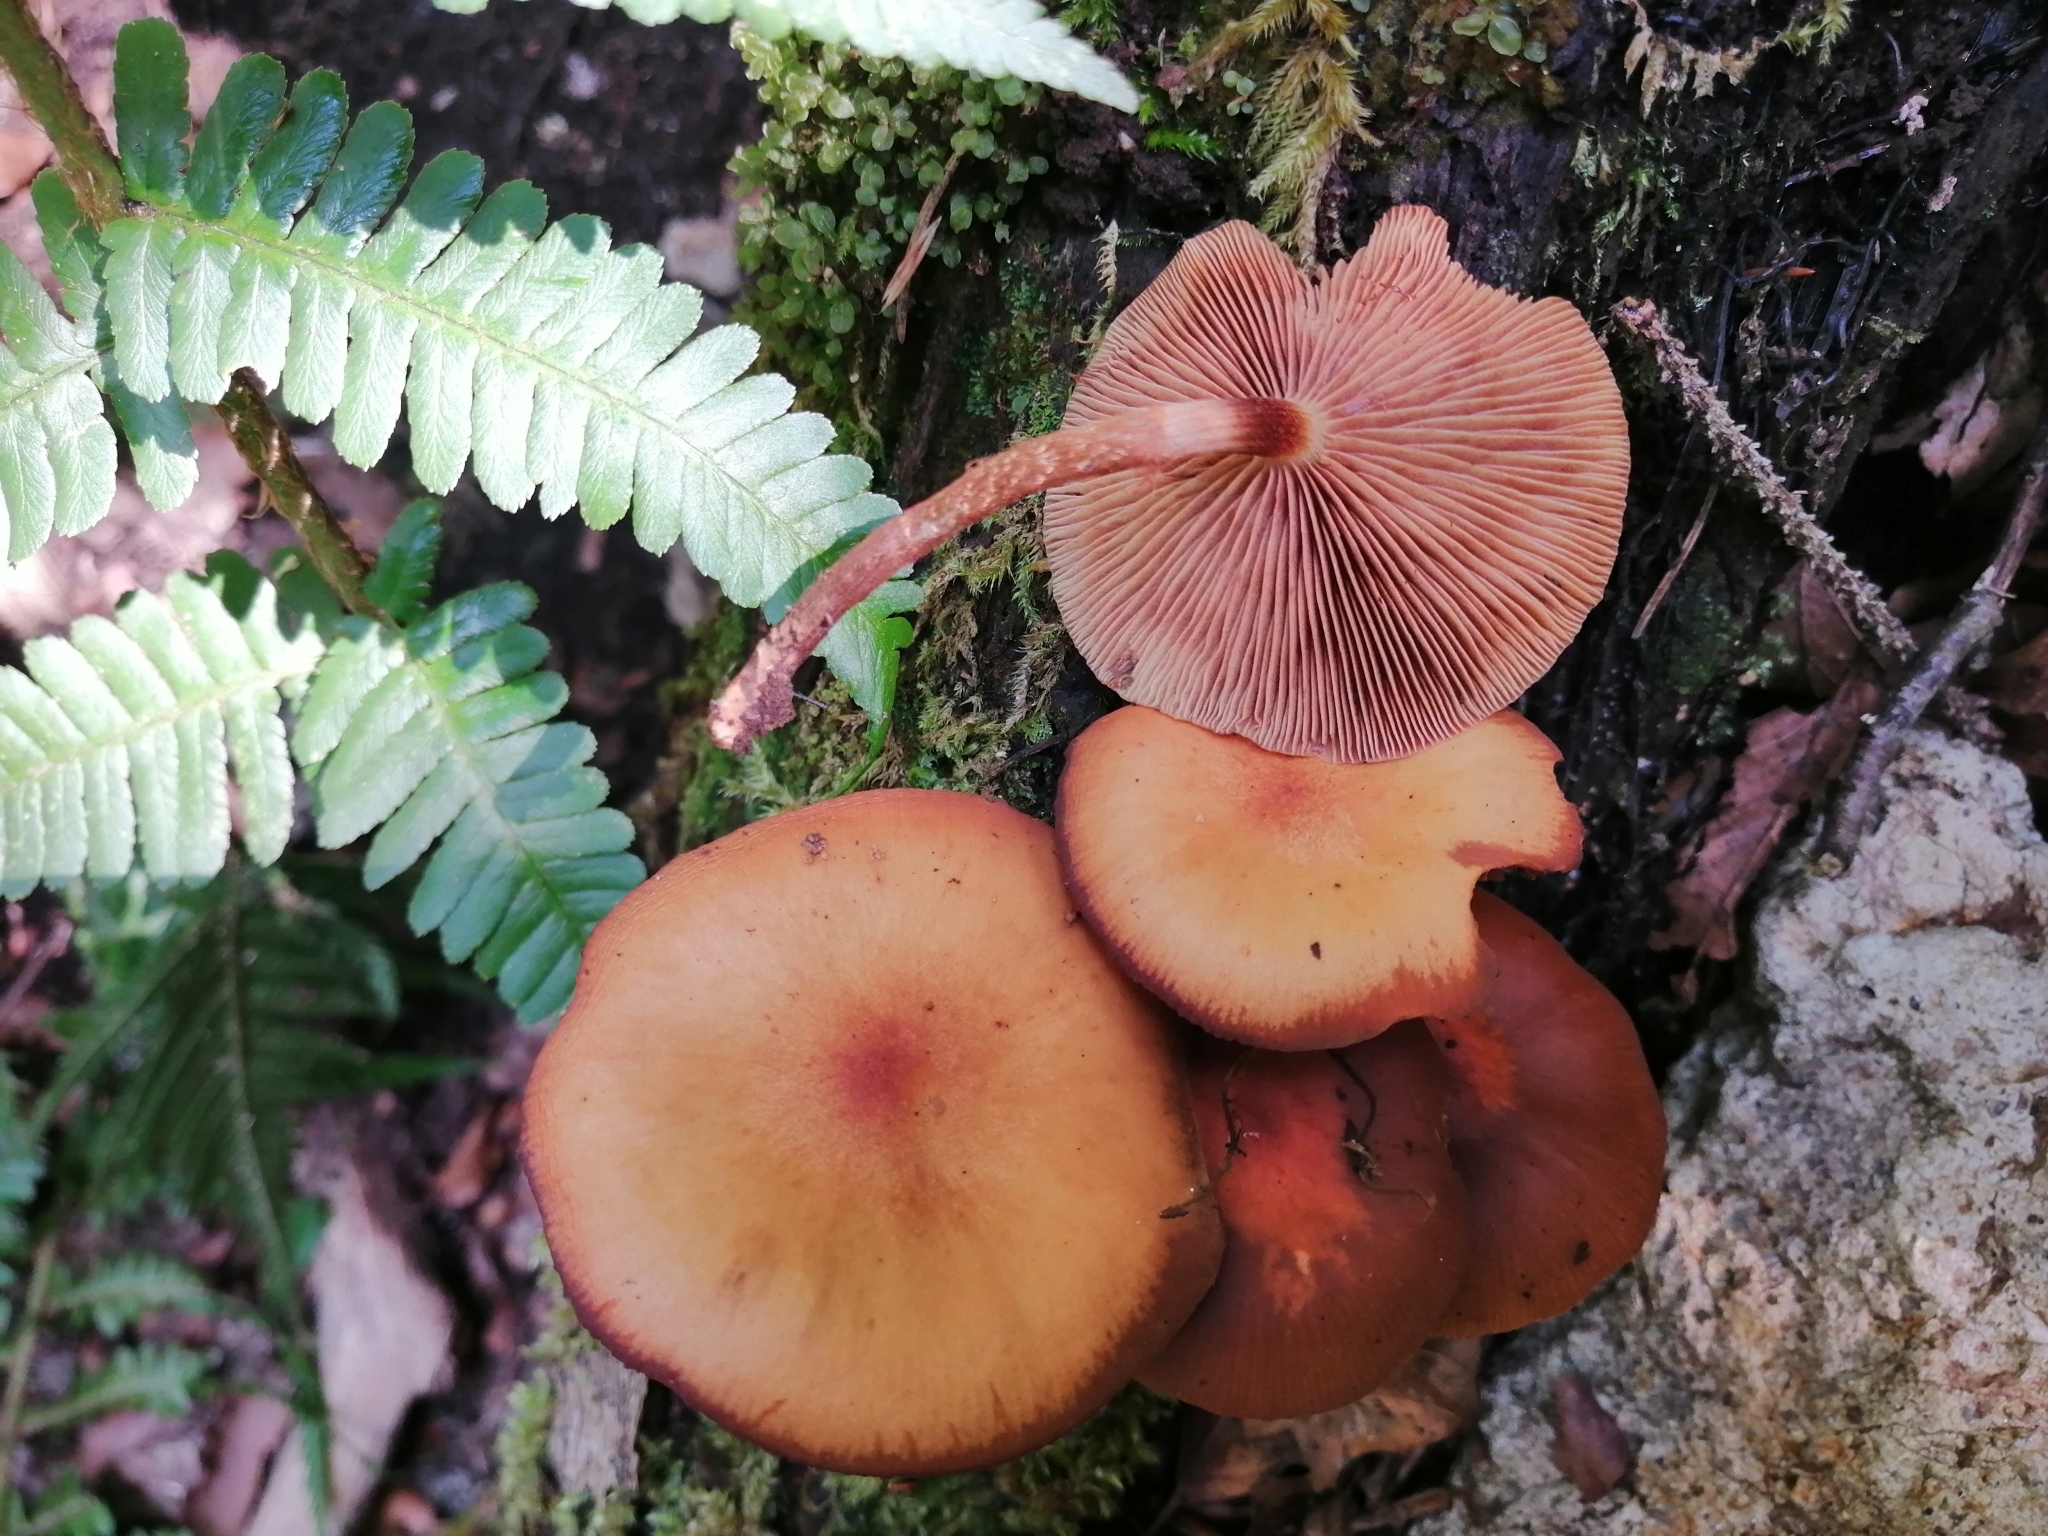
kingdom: Fungi
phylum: Basidiomycota
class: Agaricomycetes
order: Agaricales
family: Strophariaceae
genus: Kuehneromyces
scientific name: Kuehneromyces mutabilis
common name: Sheathed woodtuft
